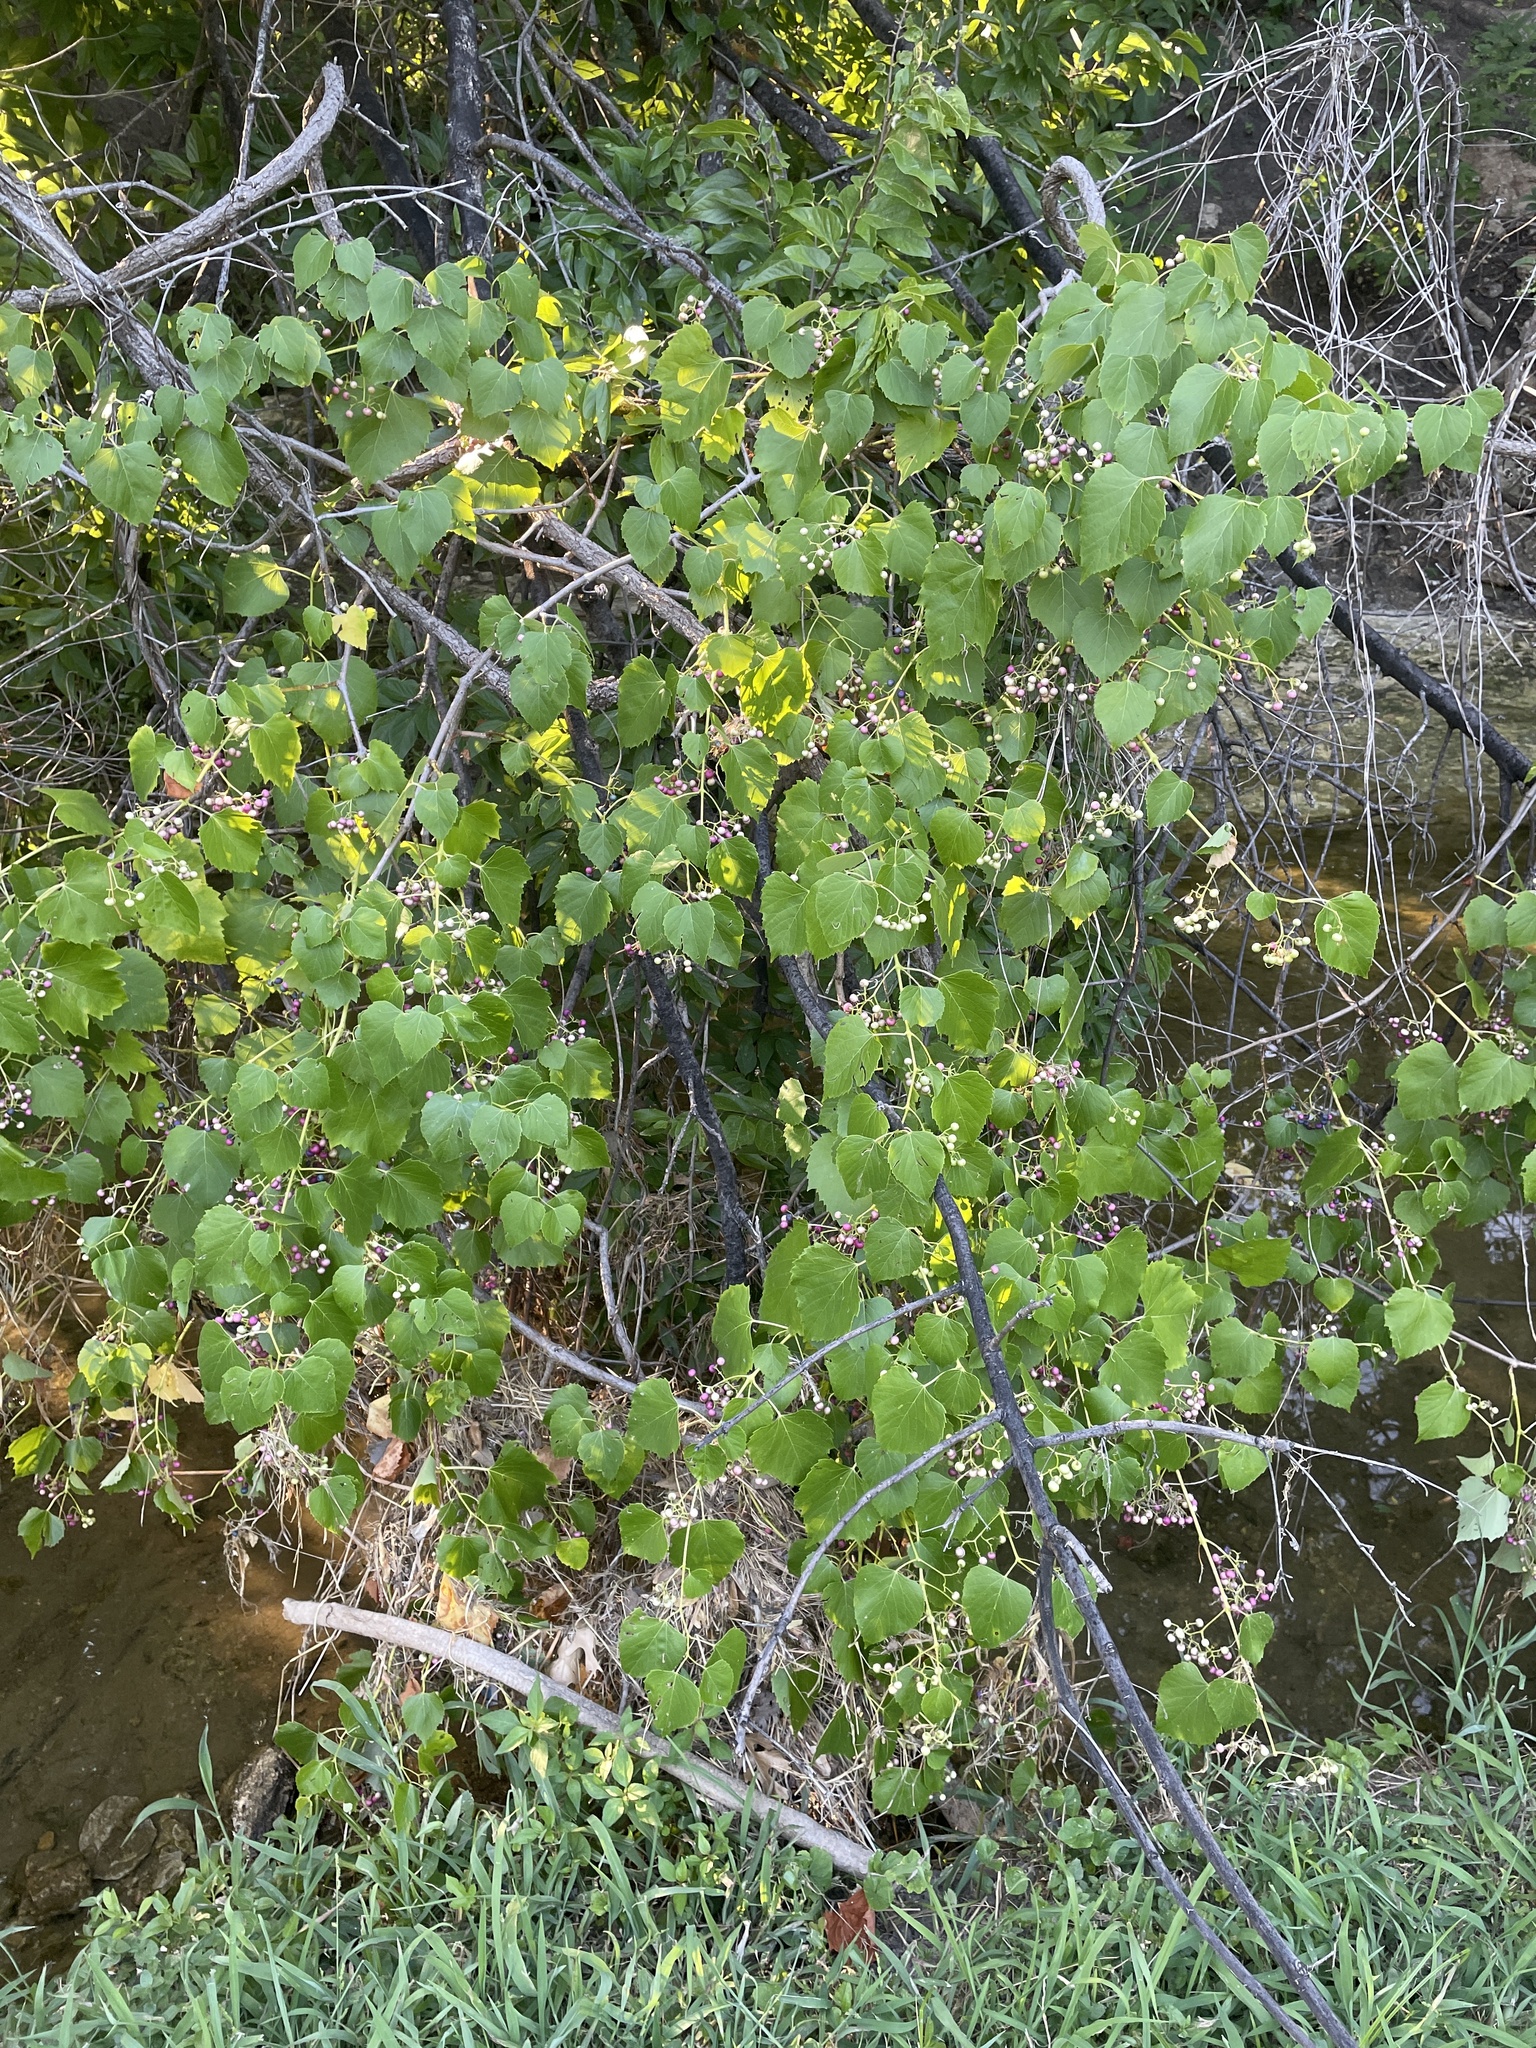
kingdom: Plantae
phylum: Tracheophyta
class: Magnoliopsida
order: Vitales
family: Vitaceae
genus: Ampelopsis
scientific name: Ampelopsis cordata
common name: Heart-leaf ampelopsis
